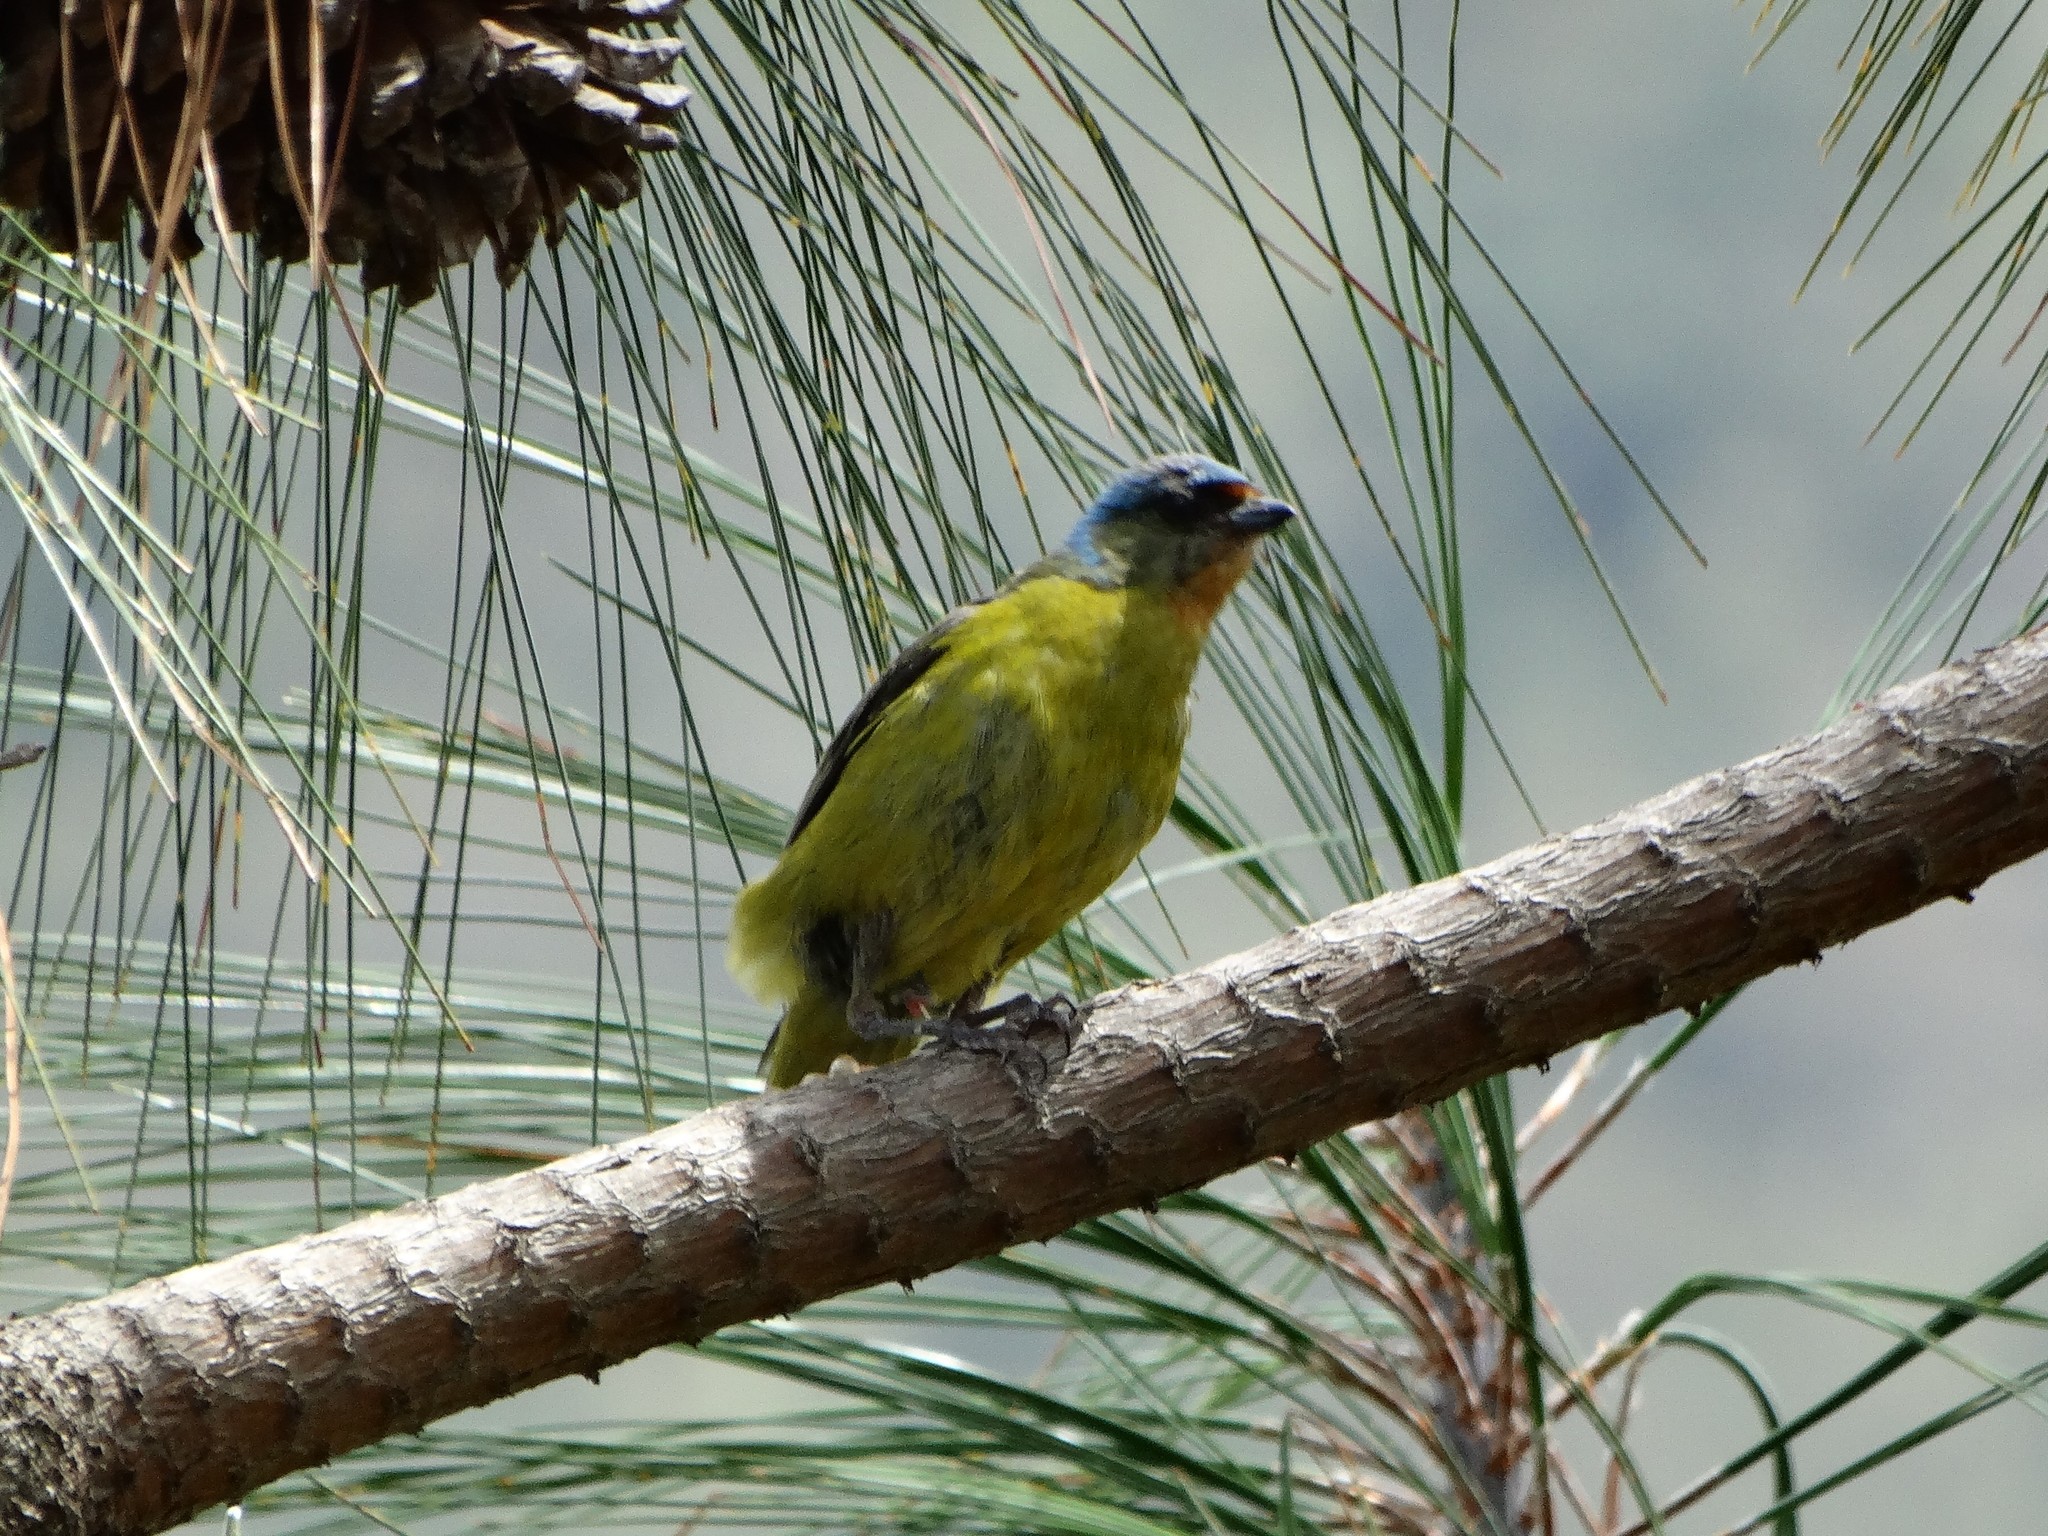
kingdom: Animalia
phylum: Chordata
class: Aves
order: Passeriformes
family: Fringillidae
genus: Euphonia
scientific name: Euphonia elegantissima
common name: Elegant euphonia
